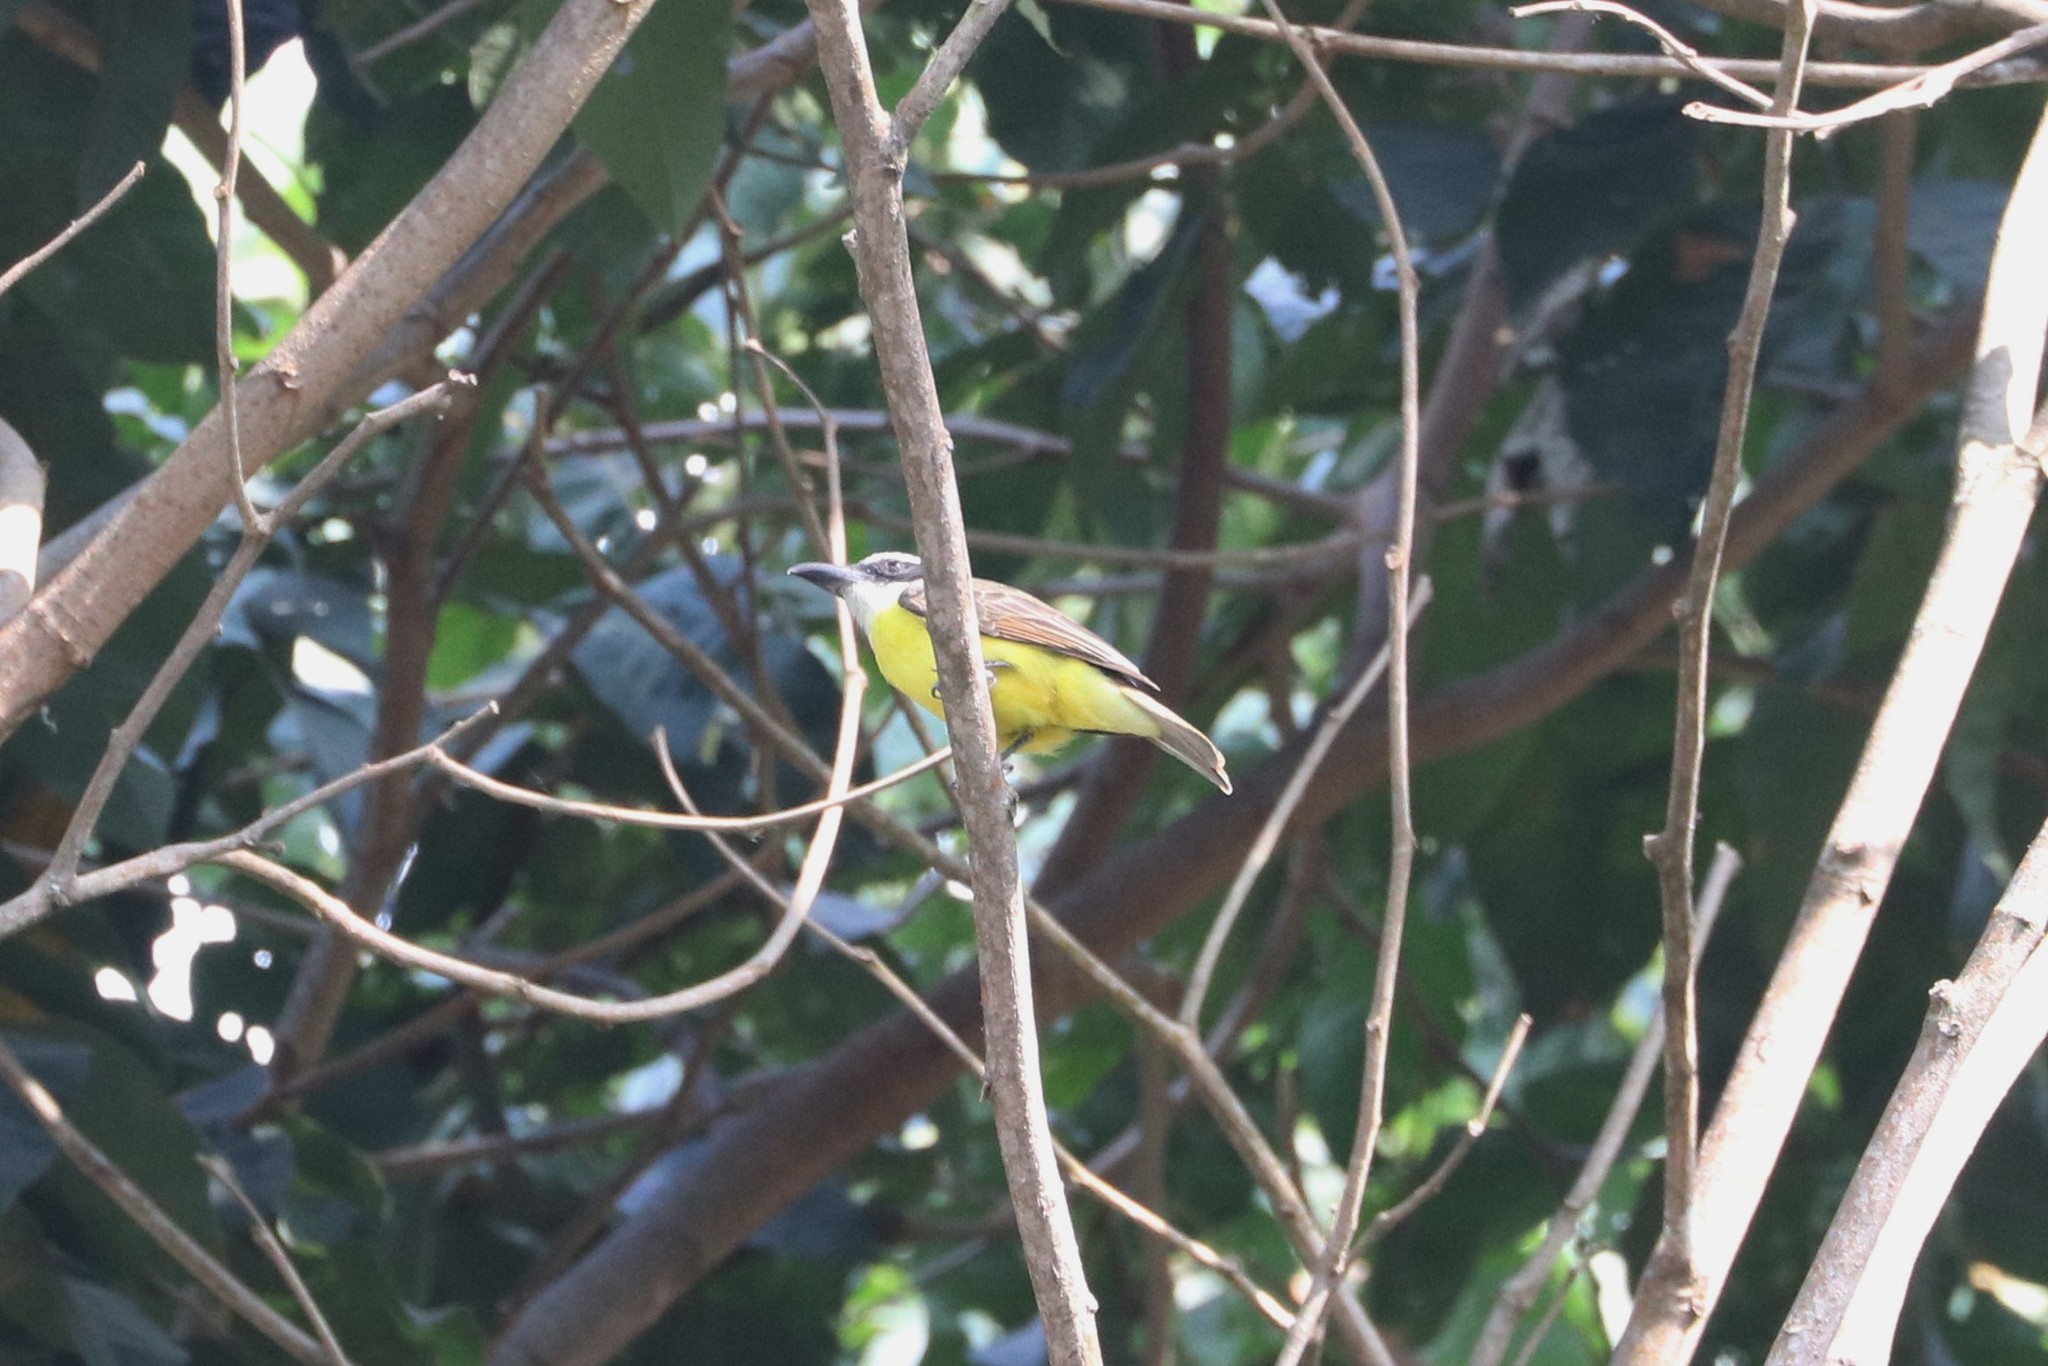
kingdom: Animalia
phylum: Chordata
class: Aves
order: Passeriformes
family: Tyrannidae
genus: Megarynchus
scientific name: Megarynchus pitangua
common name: Boat-billed flycatcher
